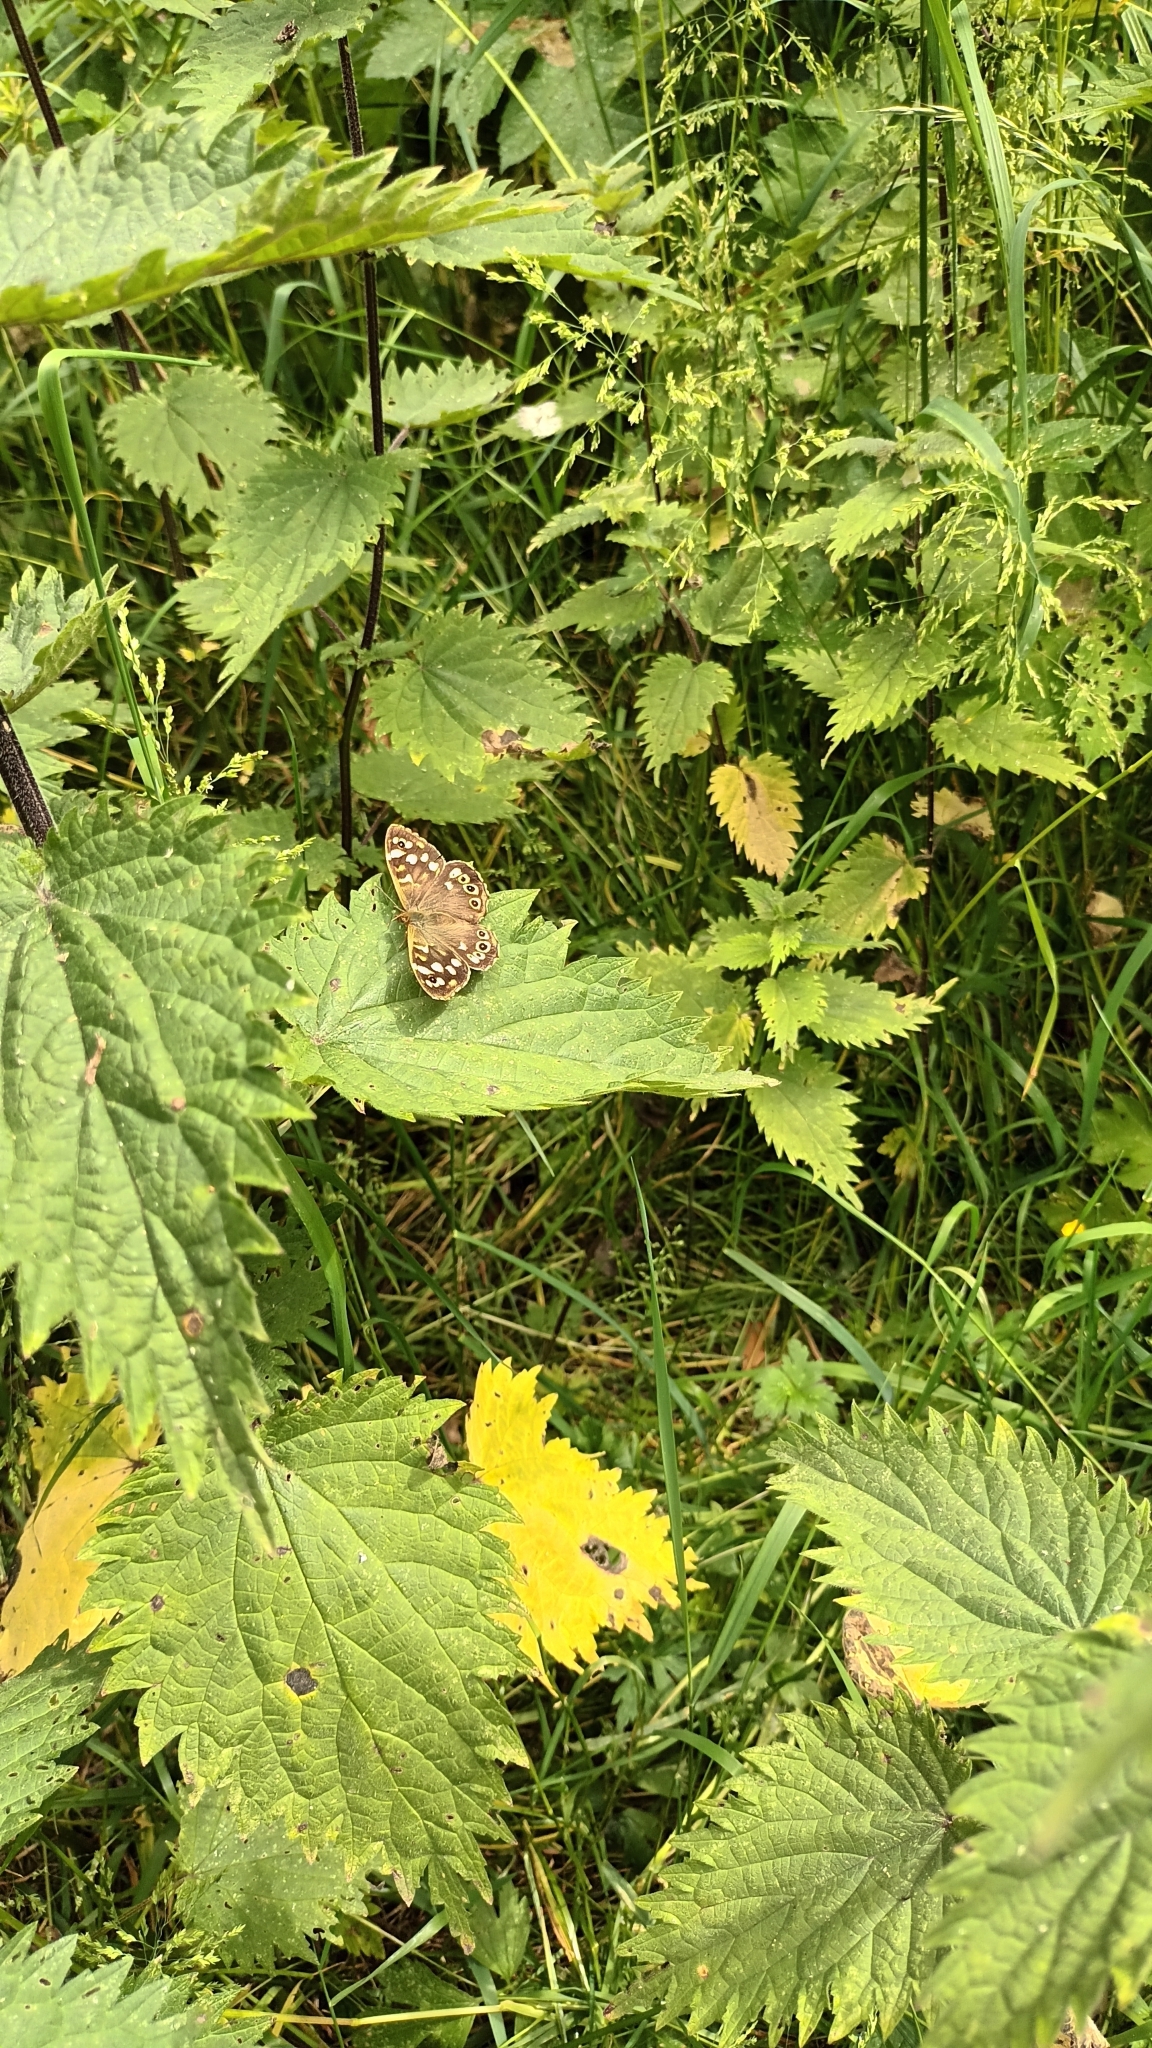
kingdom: Animalia
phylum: Arthropoda
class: Insecta
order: Lepidoptera
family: Nymphalidae
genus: Pararge
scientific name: Pararge aegeria
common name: Speckled wood
